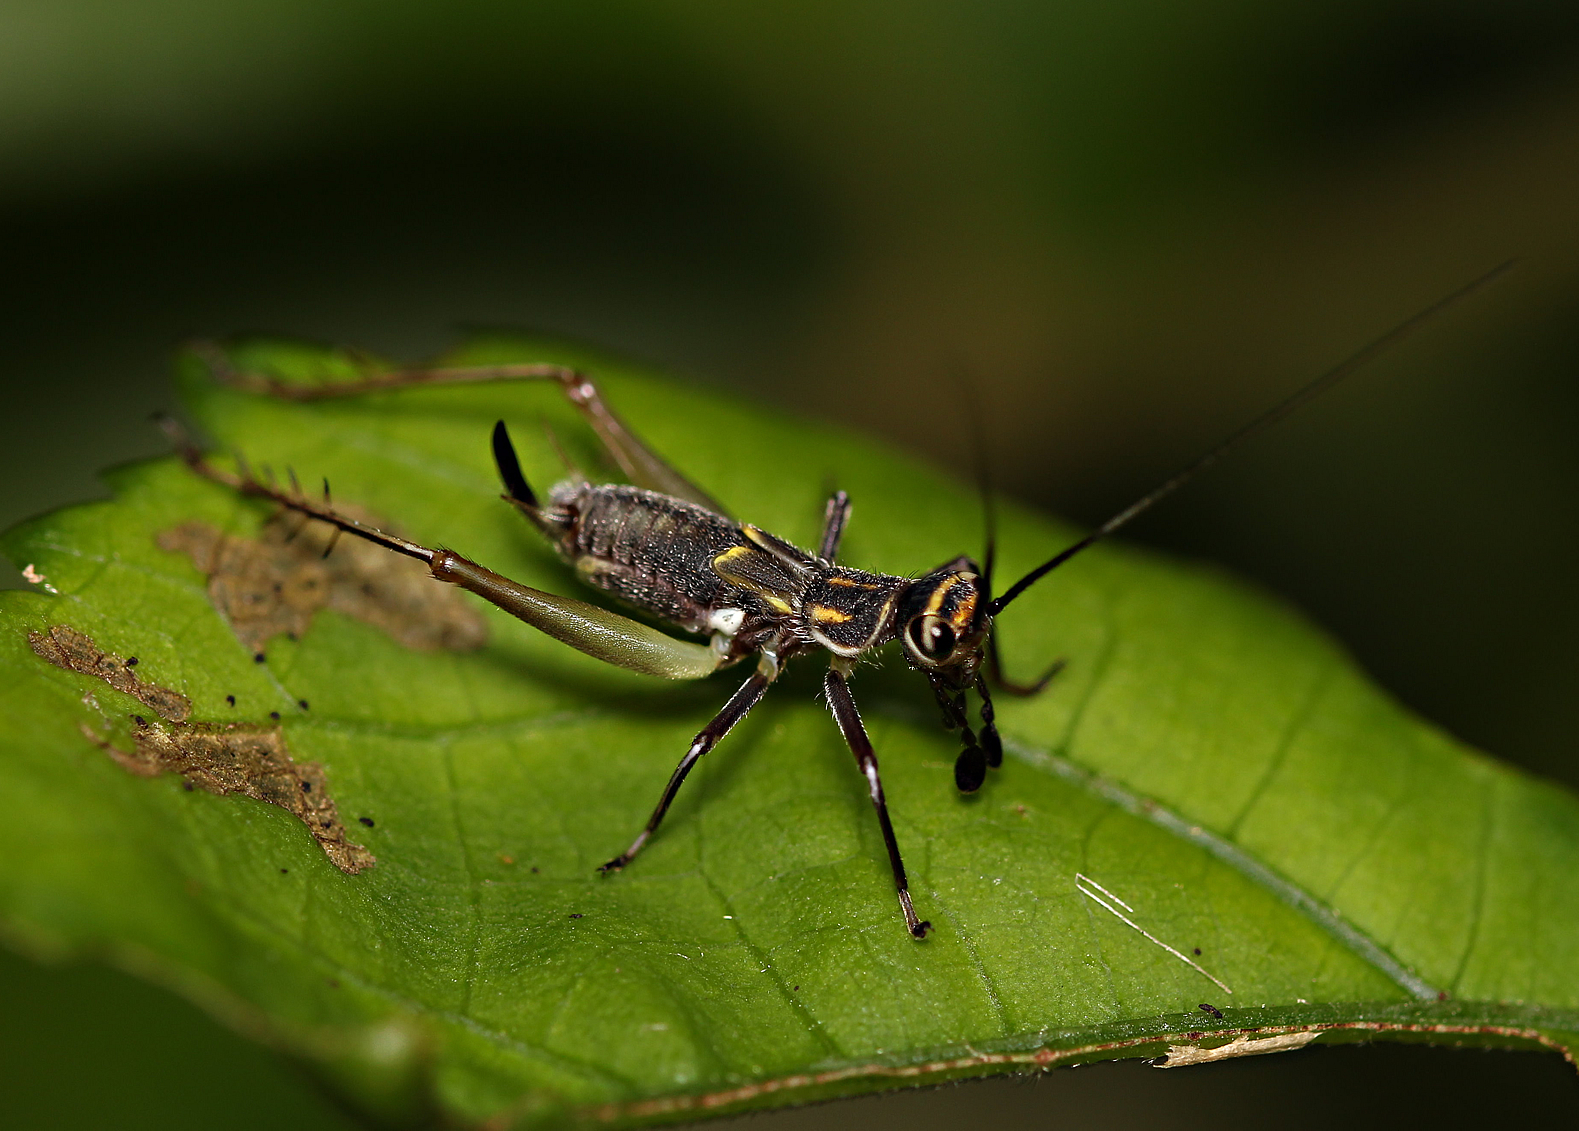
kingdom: Animalia
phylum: Arthropoda
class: Insecta
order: Orthoptera
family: Trigonidiidae
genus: Phylloscyrtus
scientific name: Phylloscyrtus amoenus
